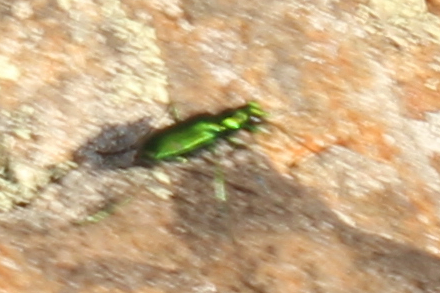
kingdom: Animalia
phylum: Arthropoda
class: Insecta
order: Coleoptera
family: Carabidae
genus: Cicindela
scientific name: Cicindela sexguttata
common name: Six-spotted tiger beetle
